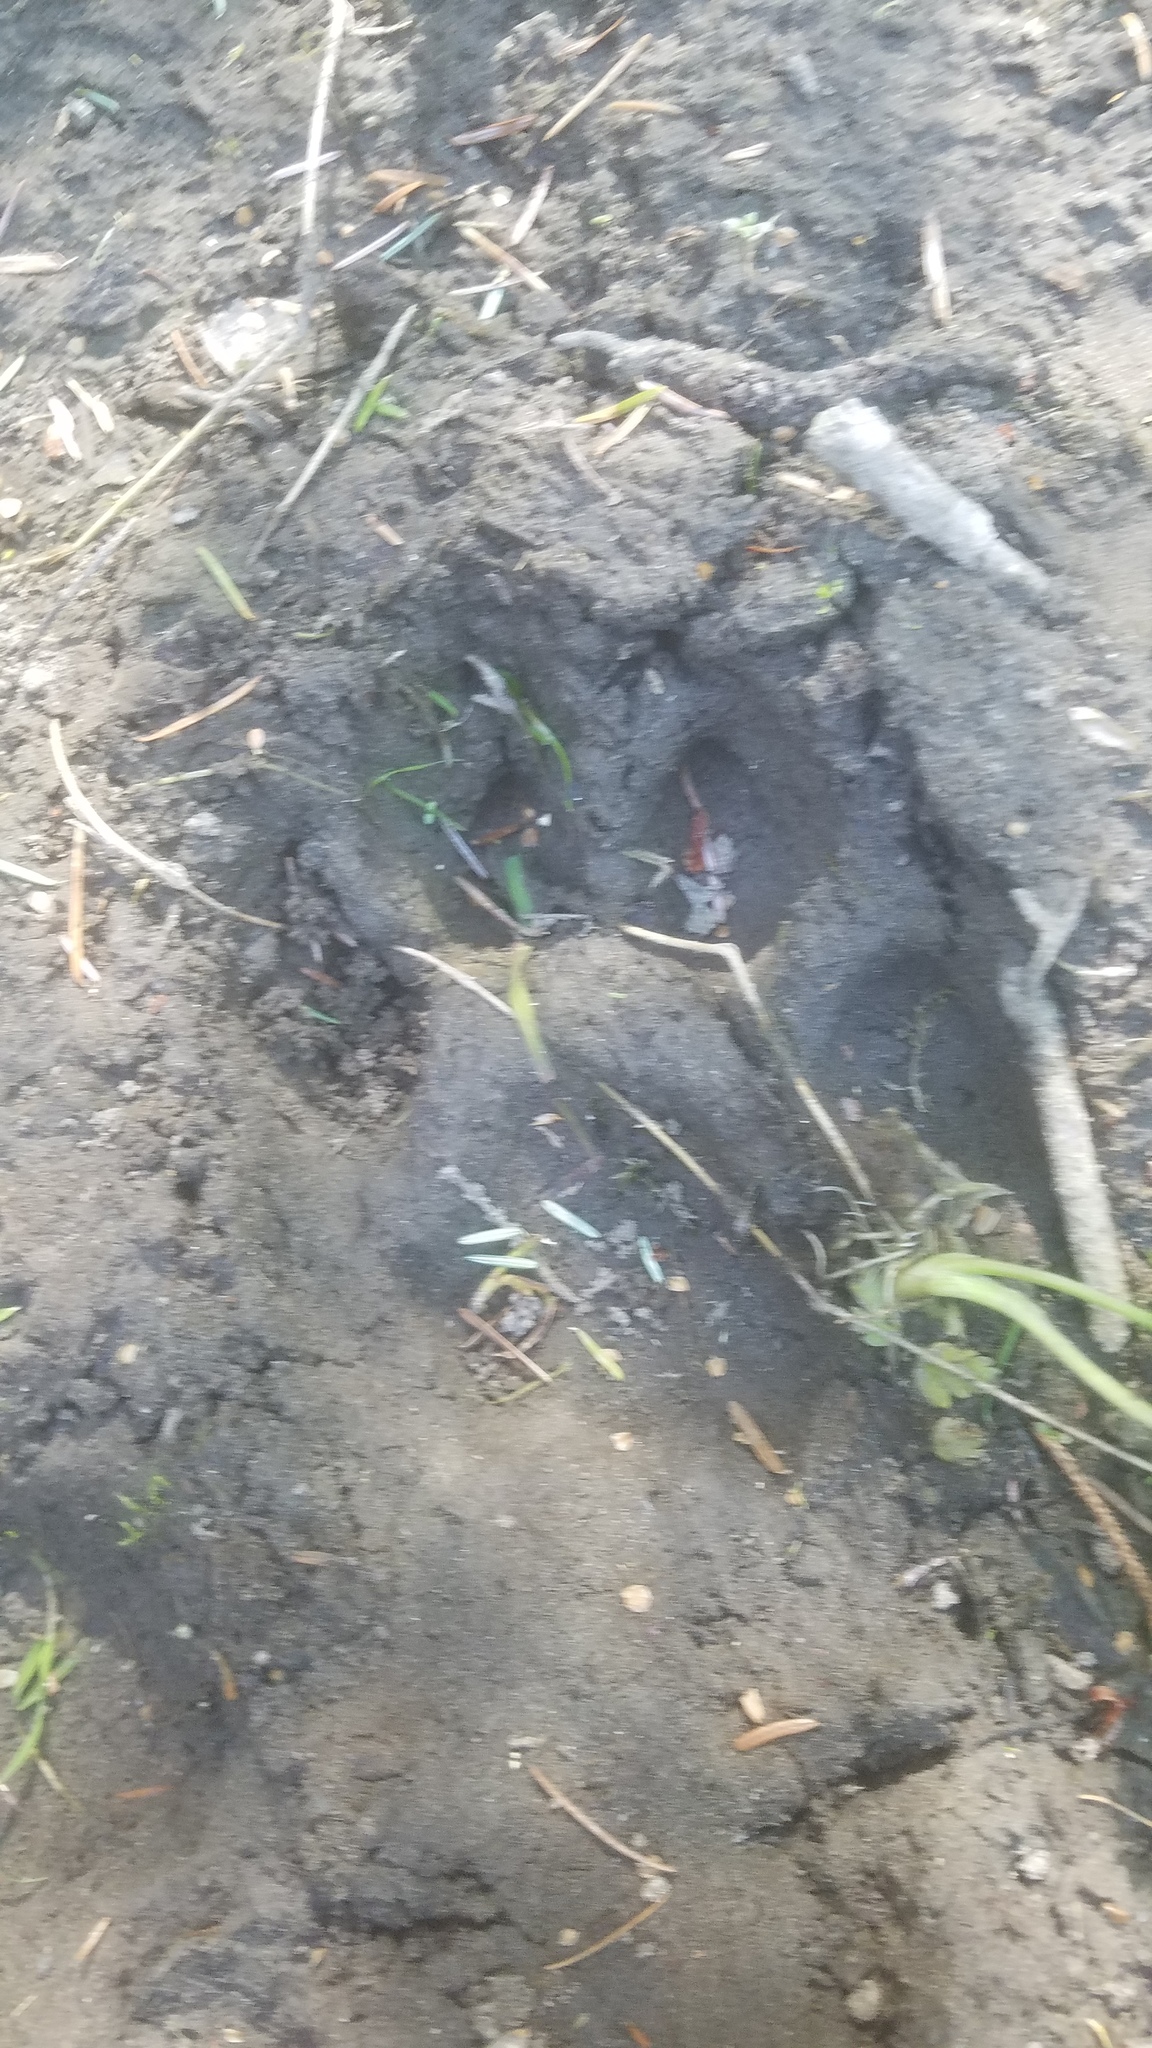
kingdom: Animalia
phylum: Chordata
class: Mammalia
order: Carnivora
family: Felidae
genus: Puma
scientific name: Puma concolor
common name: Puma
